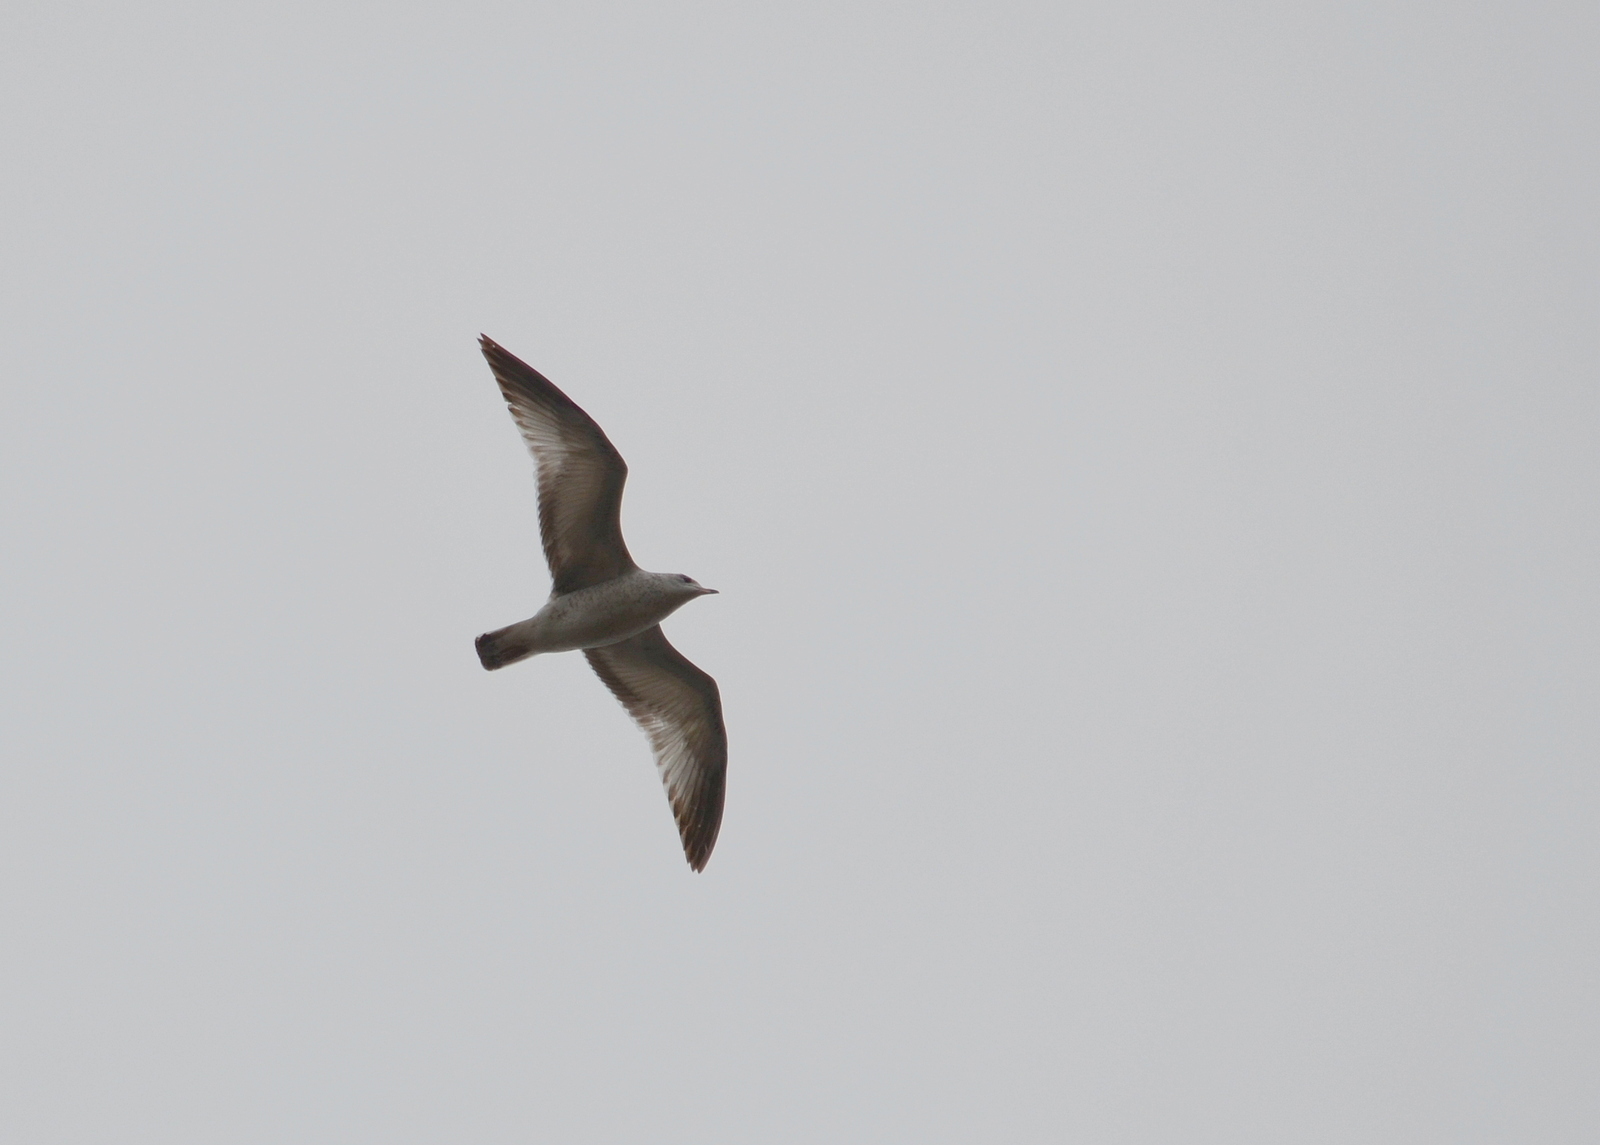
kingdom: Animalia
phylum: Chordata
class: Aves
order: Charadriiformes
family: Laridae
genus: Larus
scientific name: Larus delawarensis
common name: Ring-billed gull
